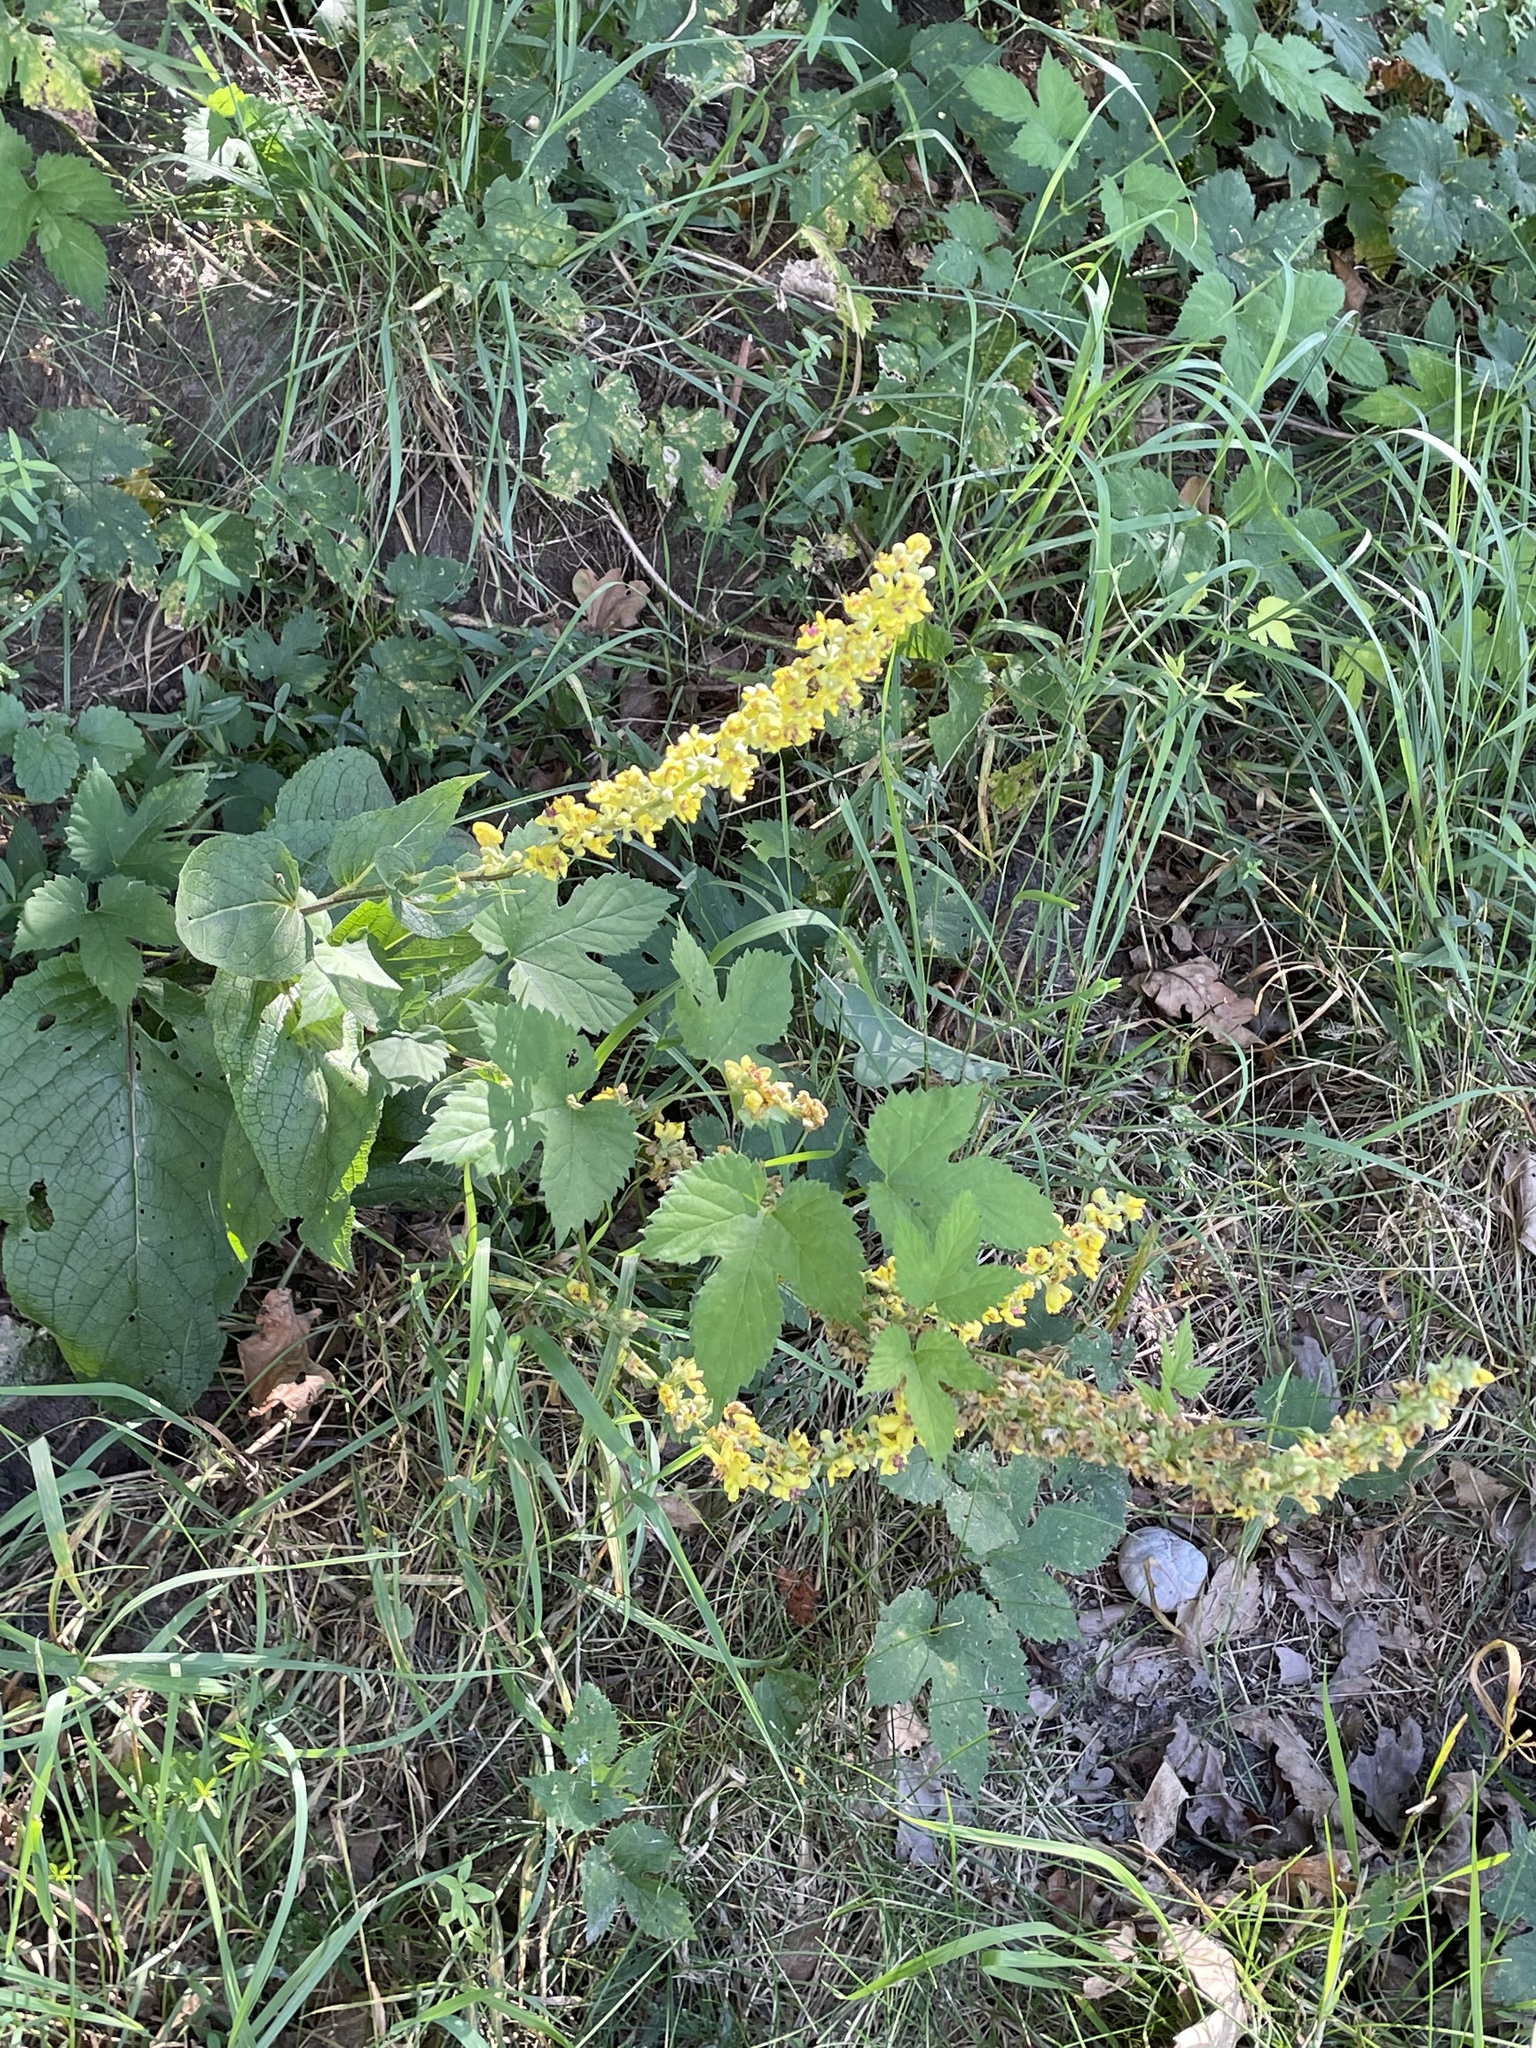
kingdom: Plantae
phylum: Tracheophyta
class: Magnoliopsida
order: Lamiales
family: Scrophulariaceae
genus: Verbascum
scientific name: Verbascum nigrum
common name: Dark mullein
